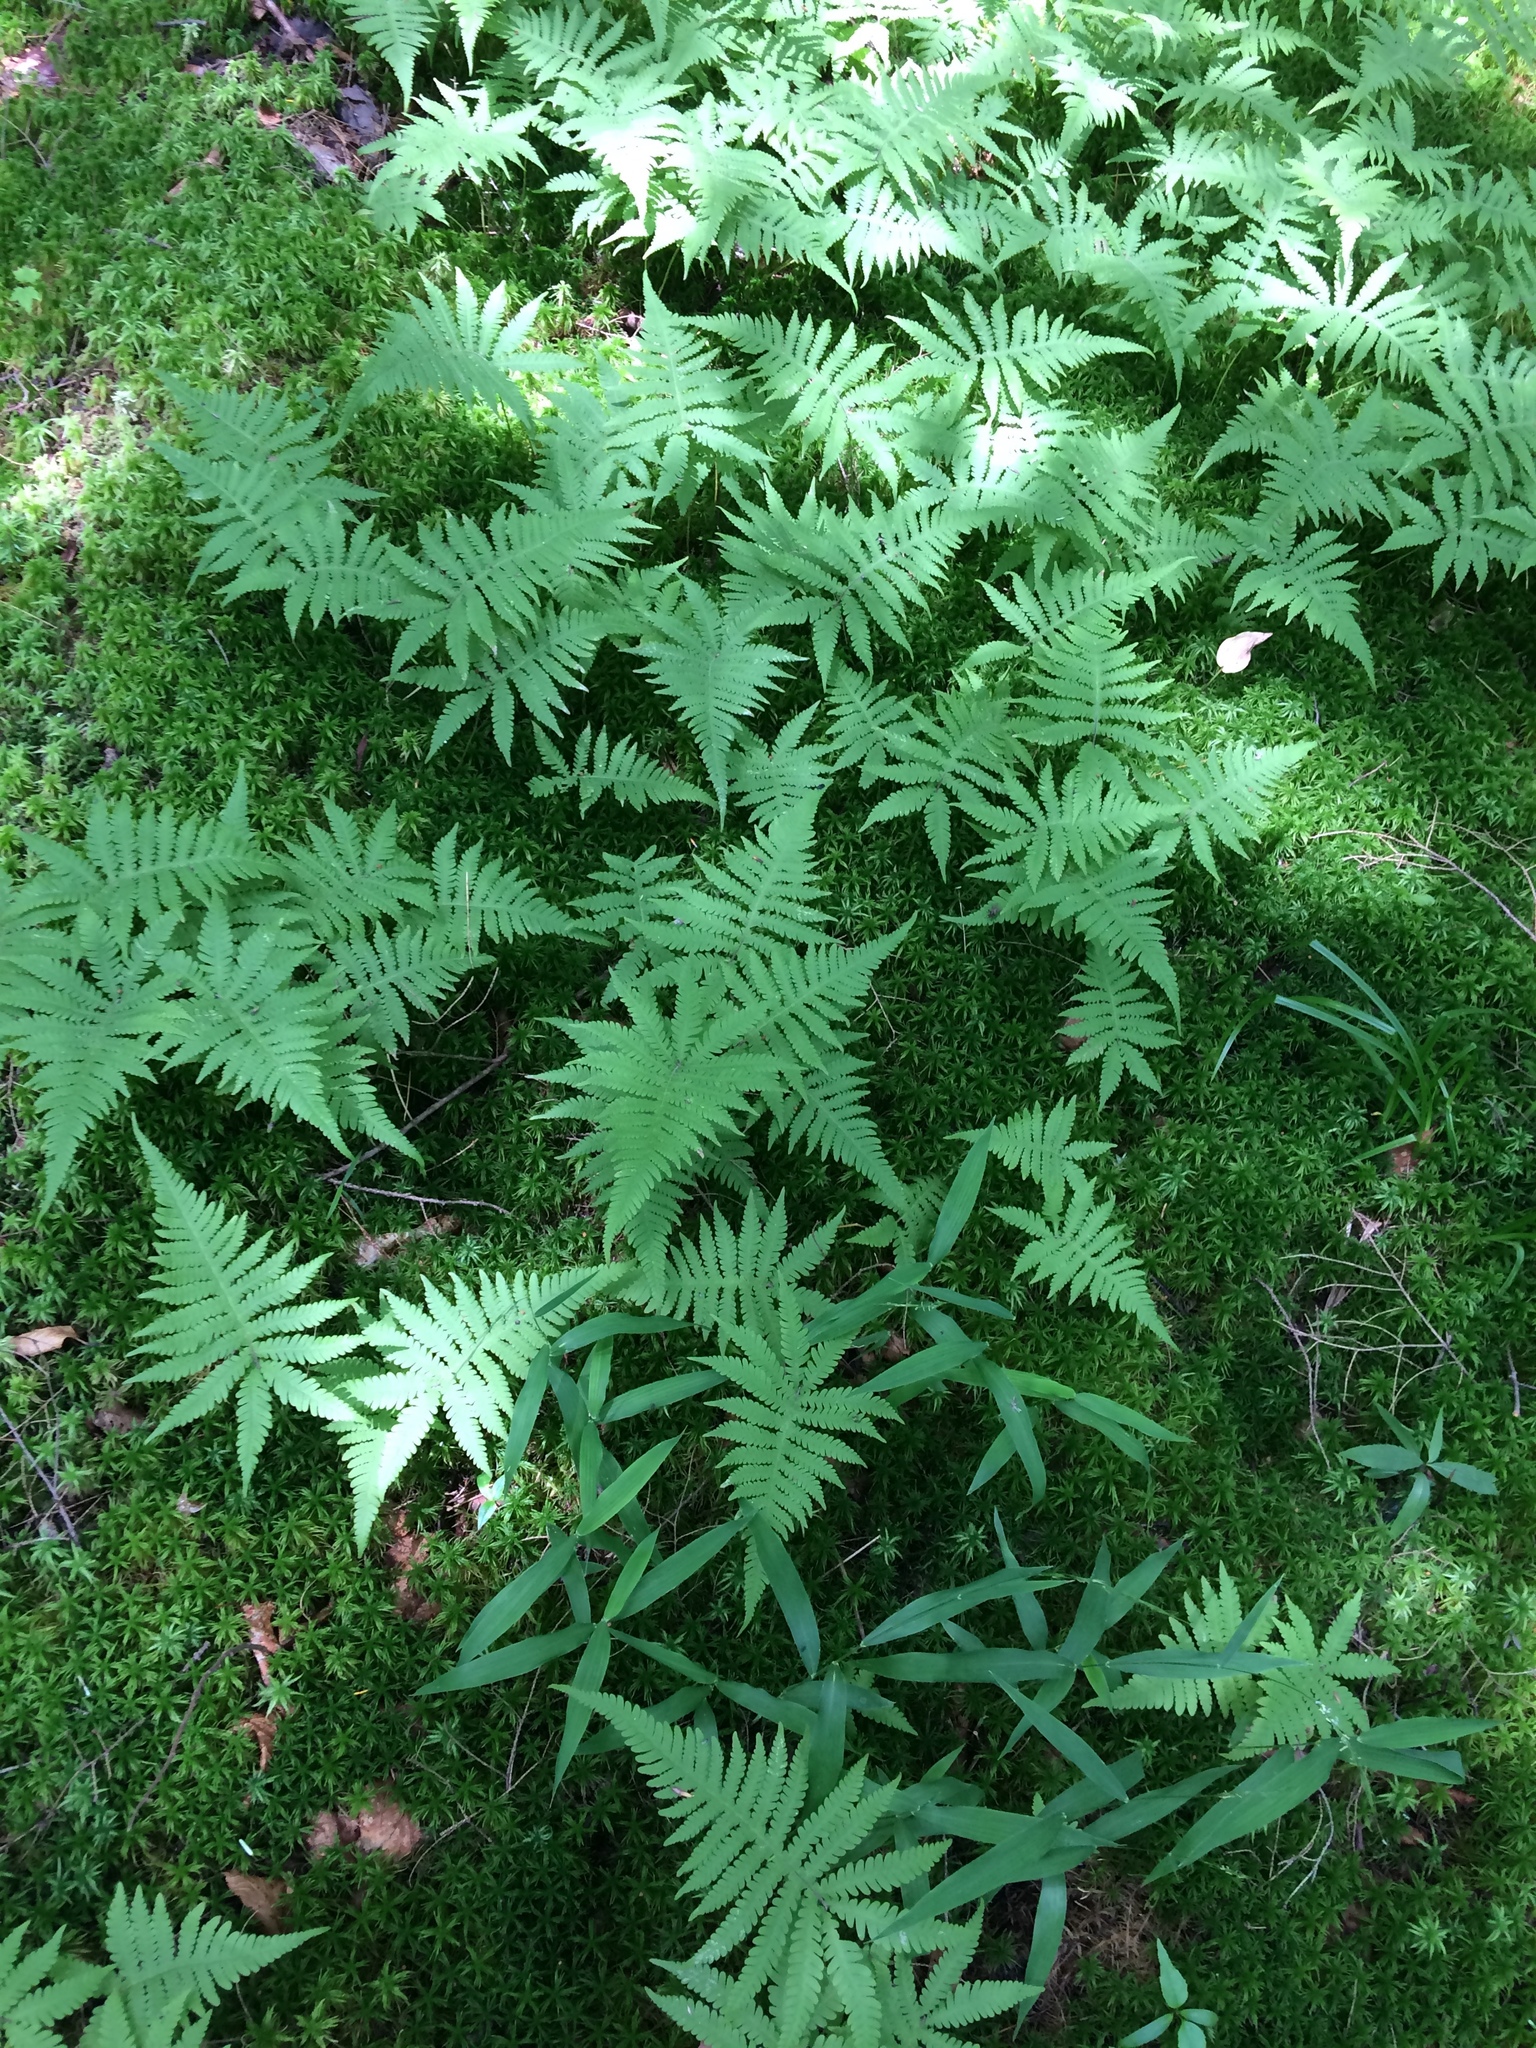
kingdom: Plantae
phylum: Tracheophyta
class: Polypodiopsida
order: Polypodiales
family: Thelypteridaceae
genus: Phegopteris
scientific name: Phegopteris connectilis
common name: Beech fern
